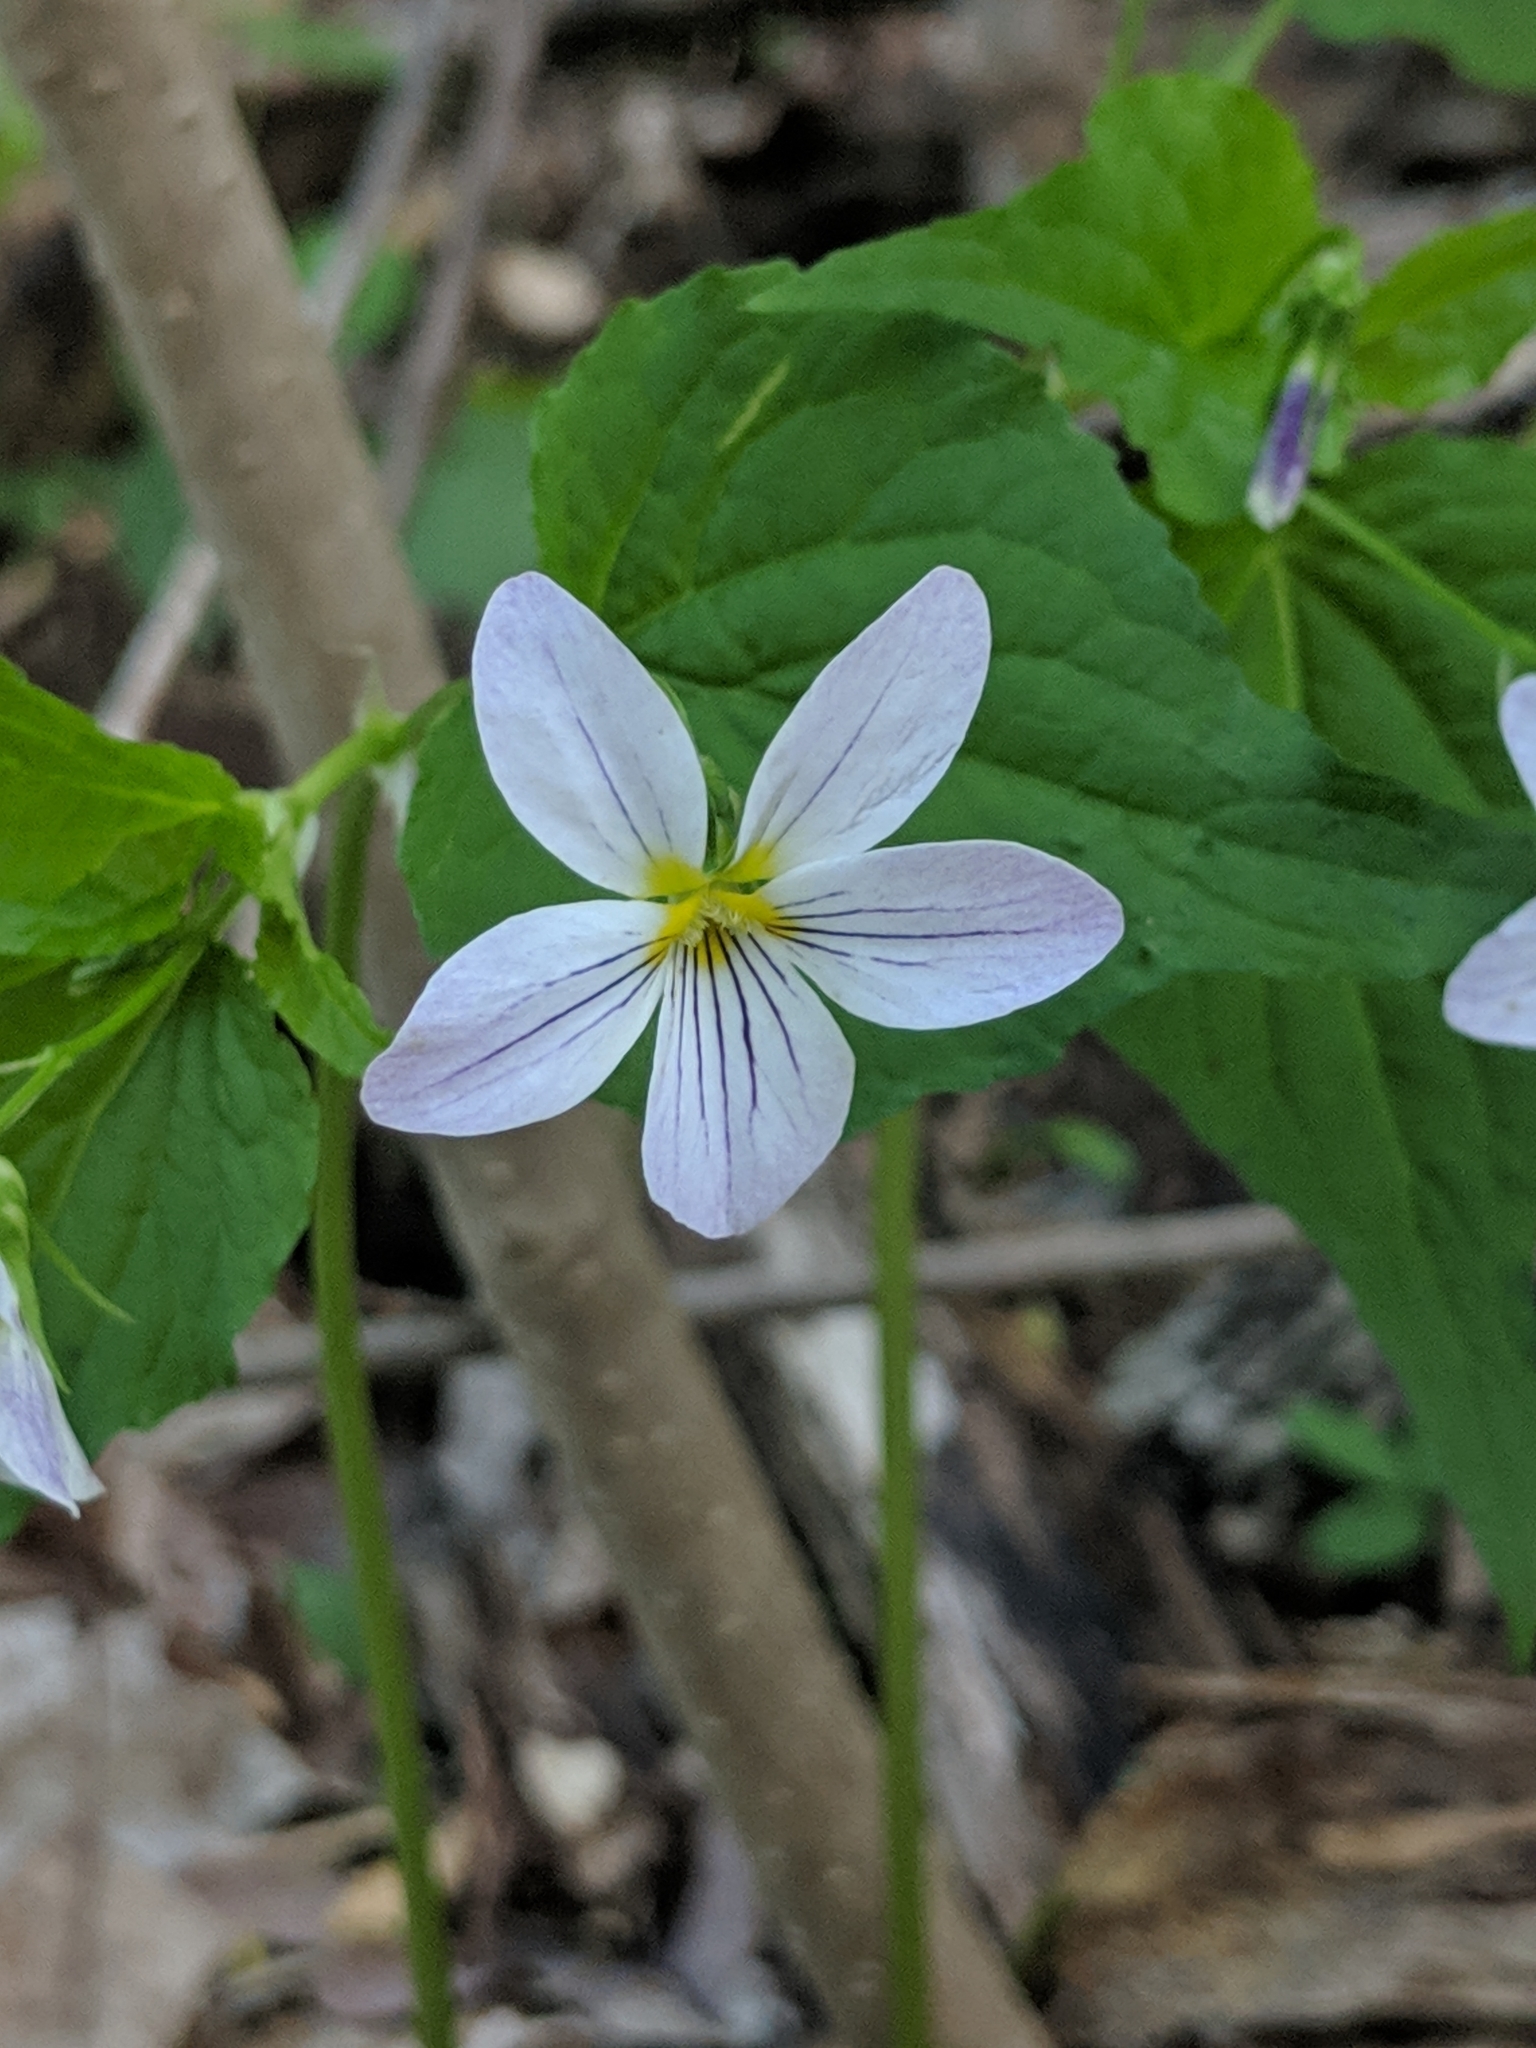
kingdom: Plantae
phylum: Tracheophyta
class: Magnoliopsida
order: Malpighiales
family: Violaceae
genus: Viola
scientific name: Viola canadensis
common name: Canada violet
